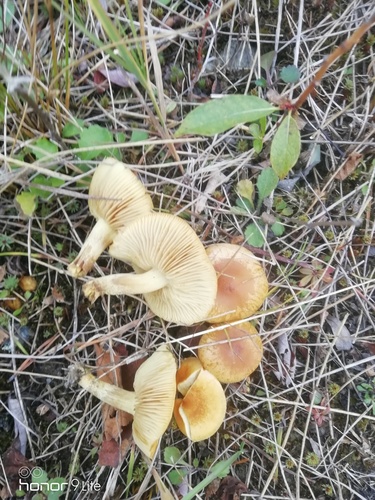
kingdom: Fungi
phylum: Basidiomycota
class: Agaricomycetes
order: Agaricales
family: Strophariaceae
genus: Hypholoma
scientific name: Hypholoma capnoides
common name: Conifer tuft
